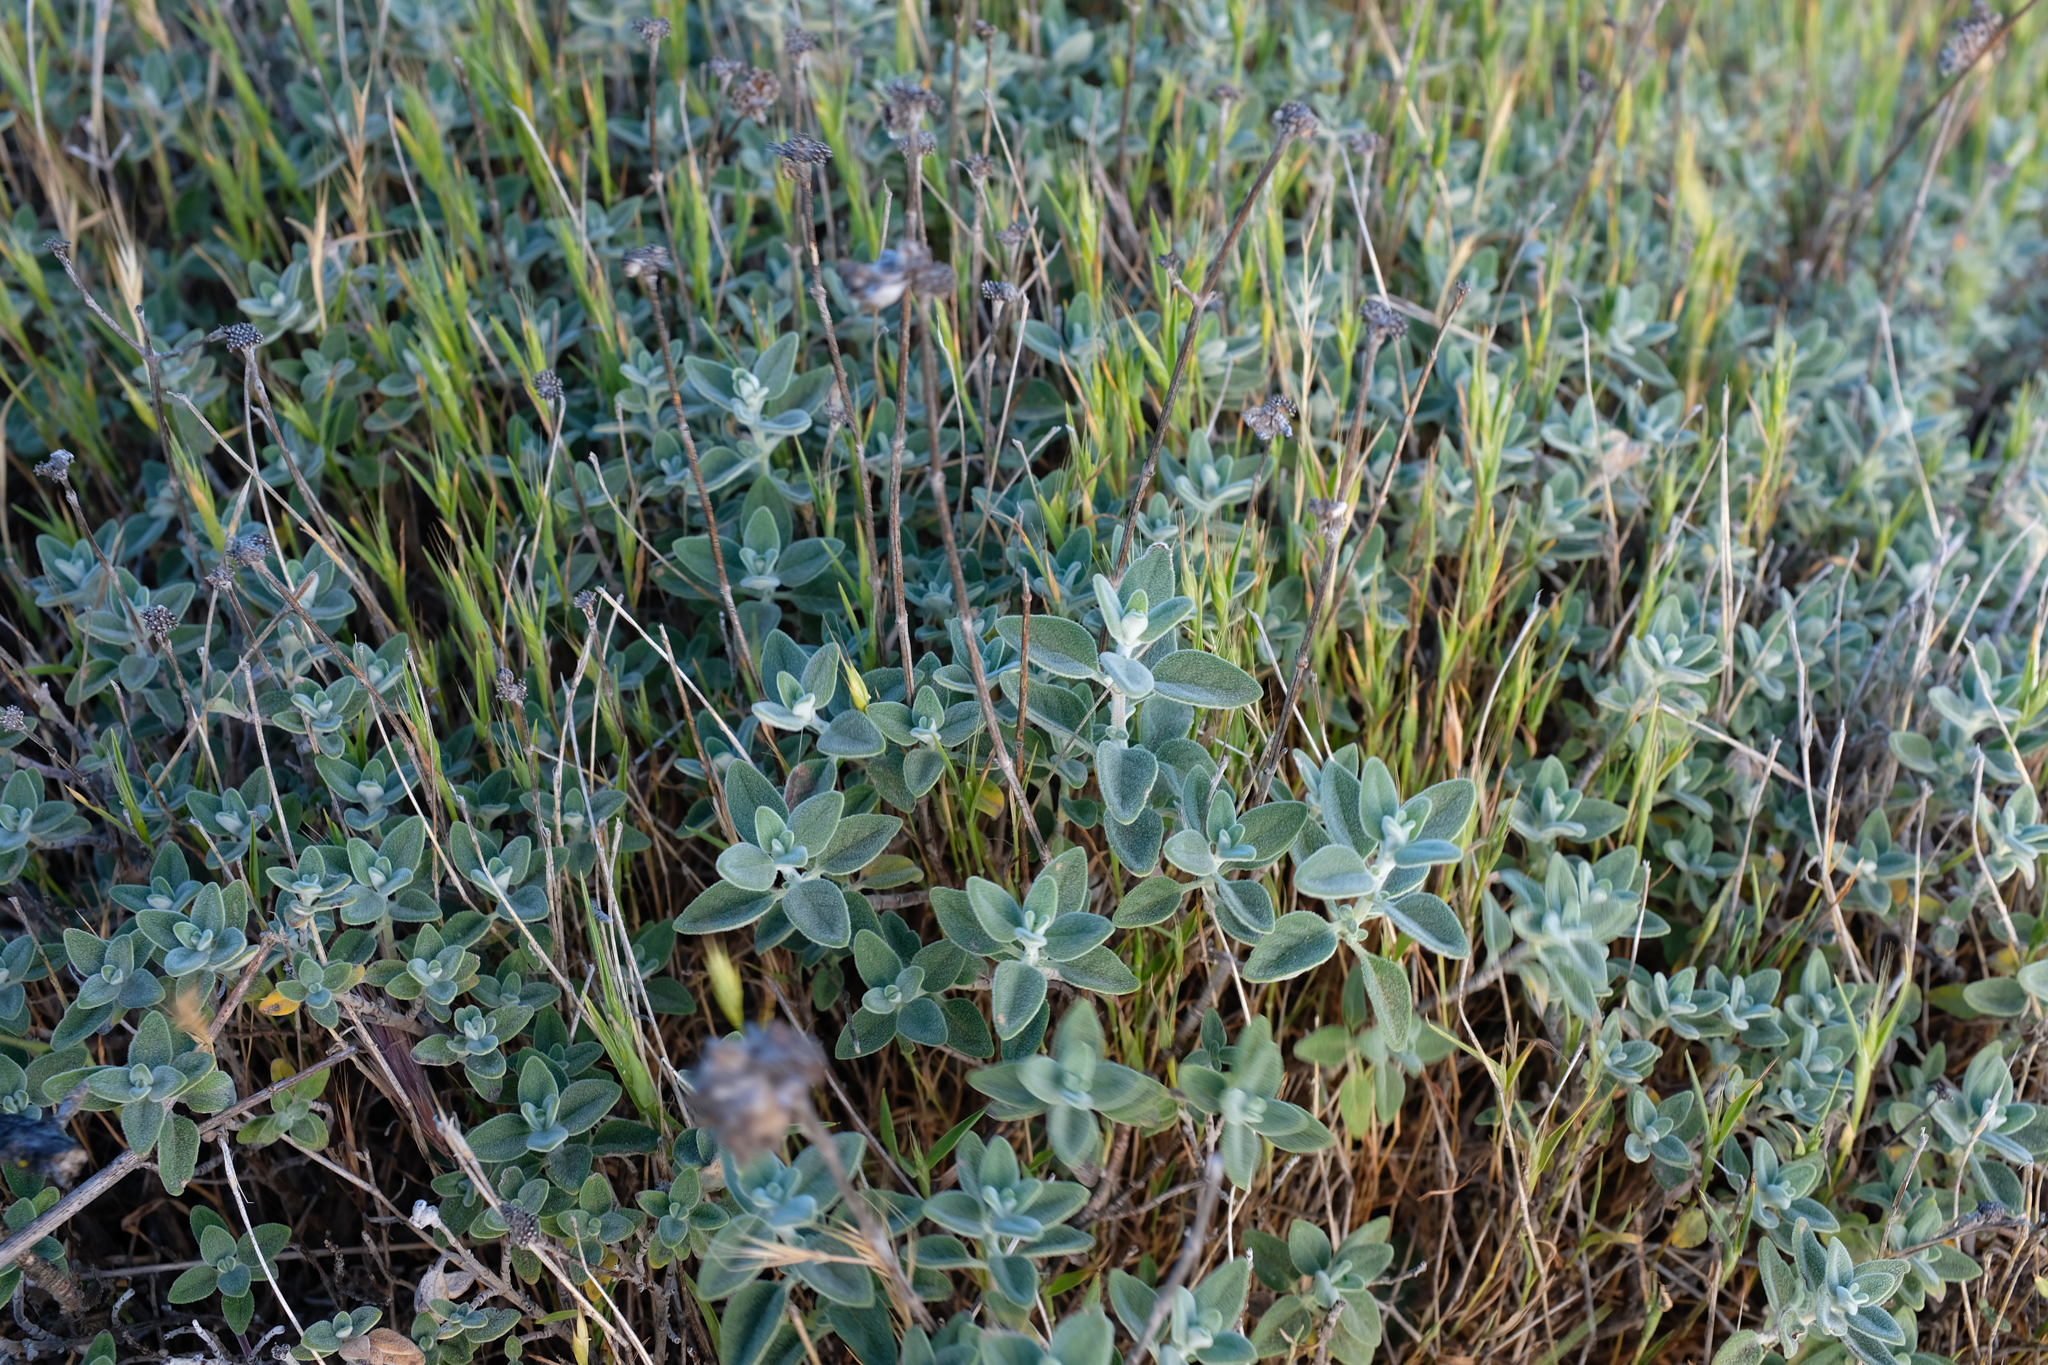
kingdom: Plantae
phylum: Tracheophyta
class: Magnoliopsida
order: Lamiales
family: Lamiaceae
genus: Monardella
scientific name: Monardella odoratissima
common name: Pacific monardella
